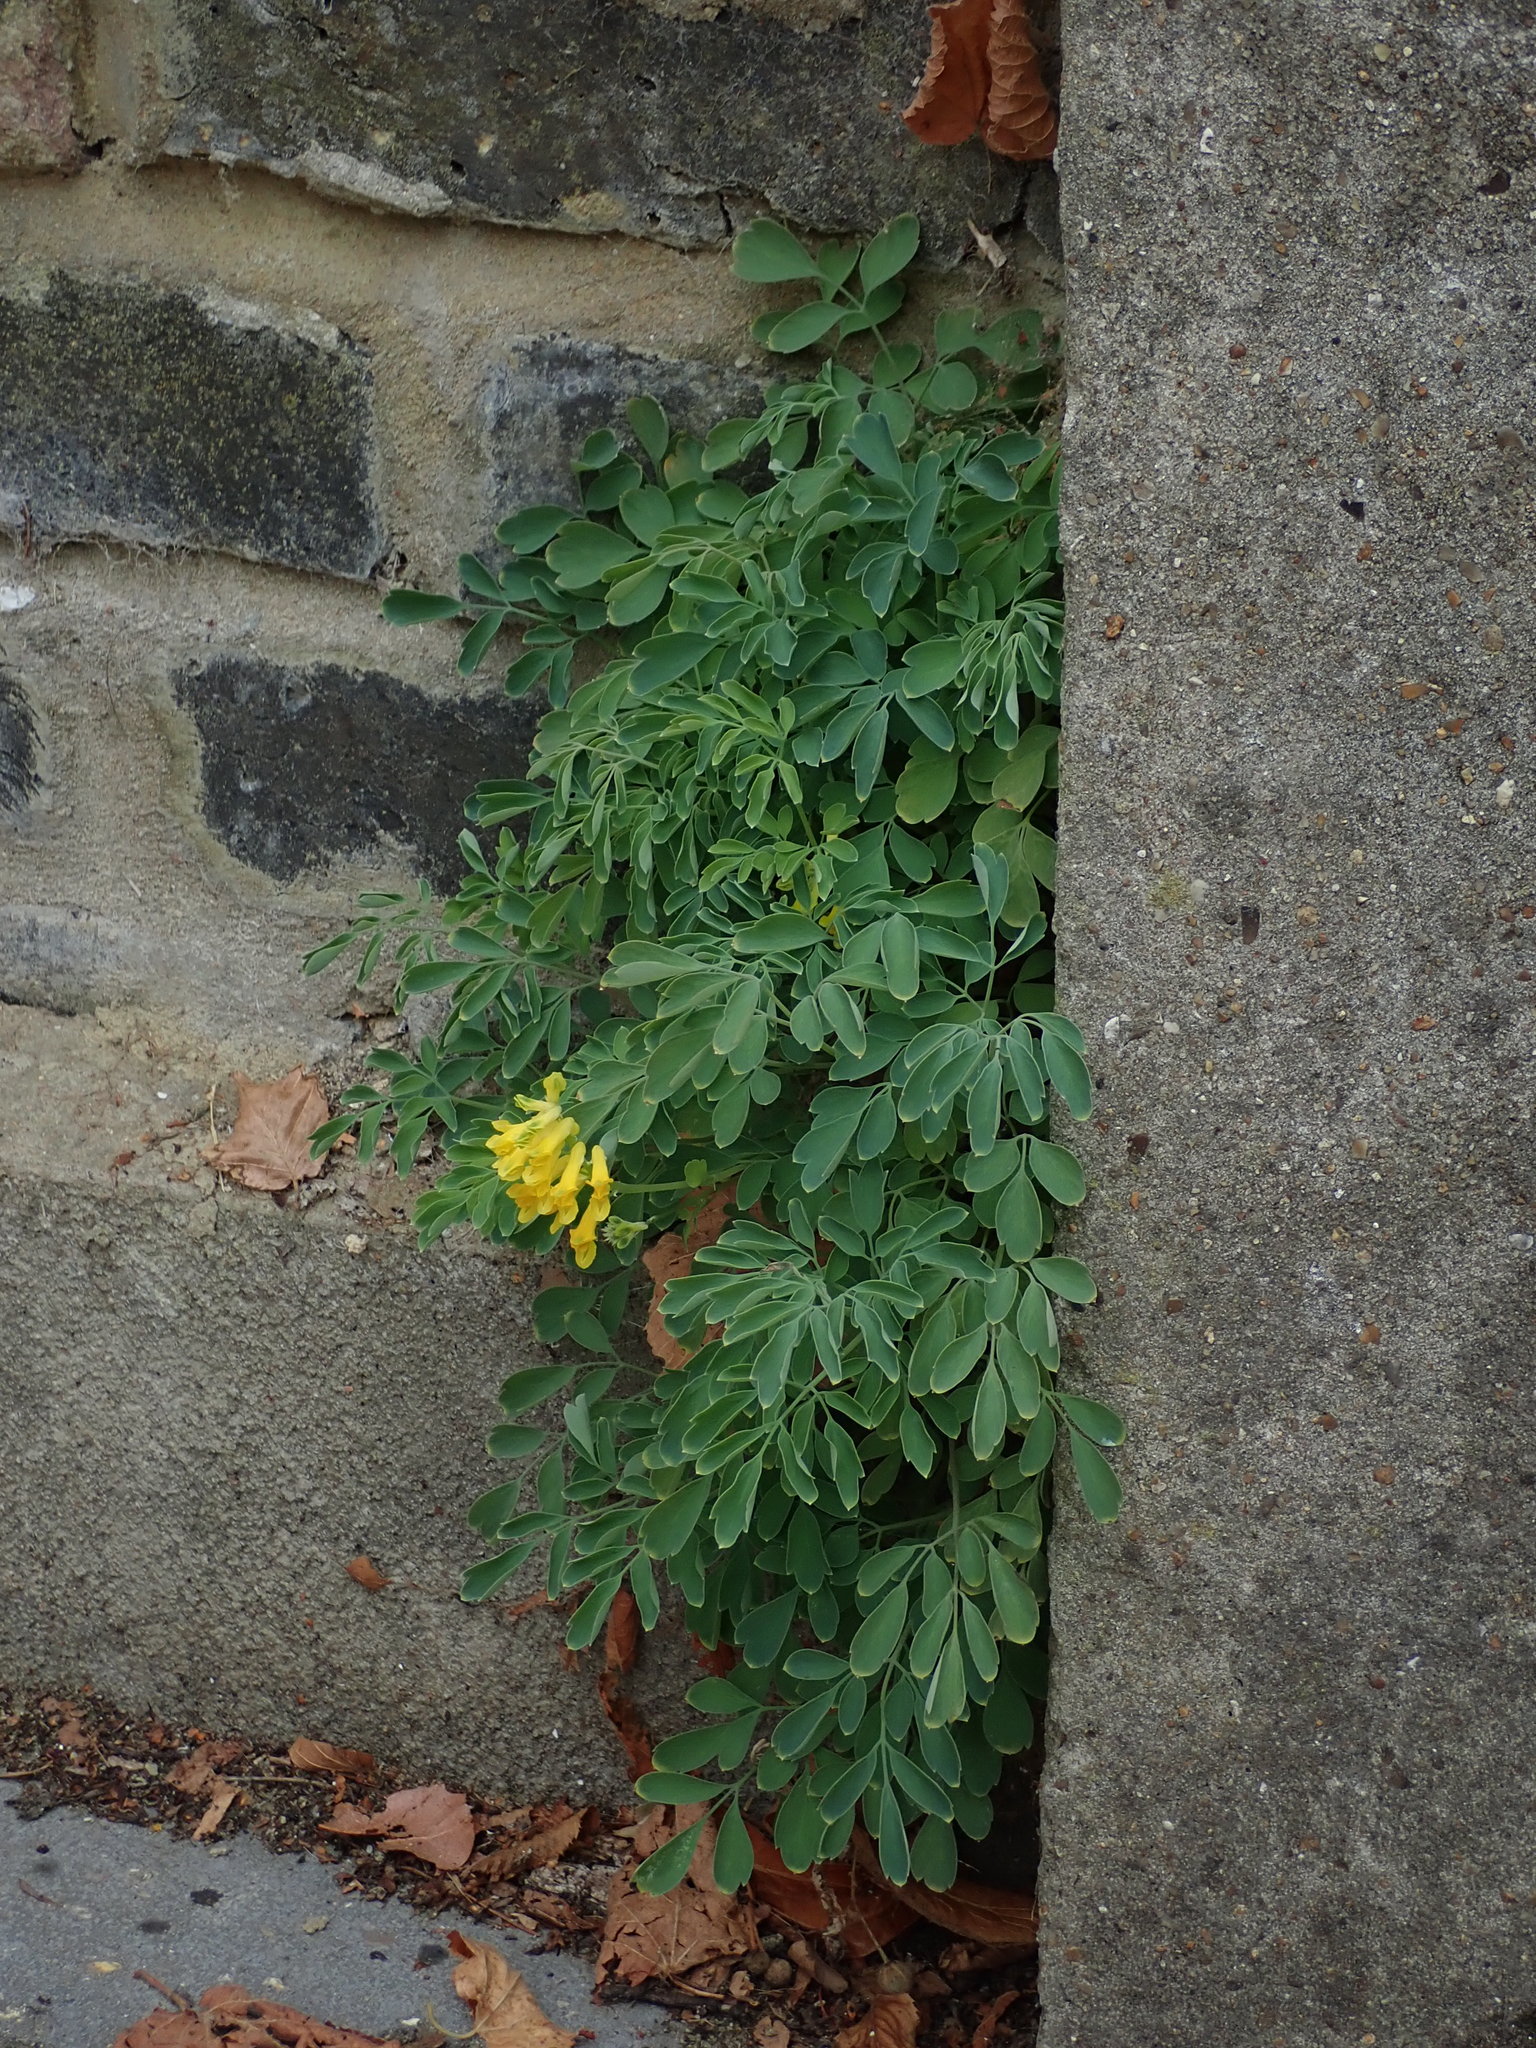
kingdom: Plantae
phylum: Tracheophyta
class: Magnoliopsida
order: Ranunculales
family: Papaveraceae
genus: Pseudofumaria
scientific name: Pseudofumaria lutea
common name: Yellow corydalis
